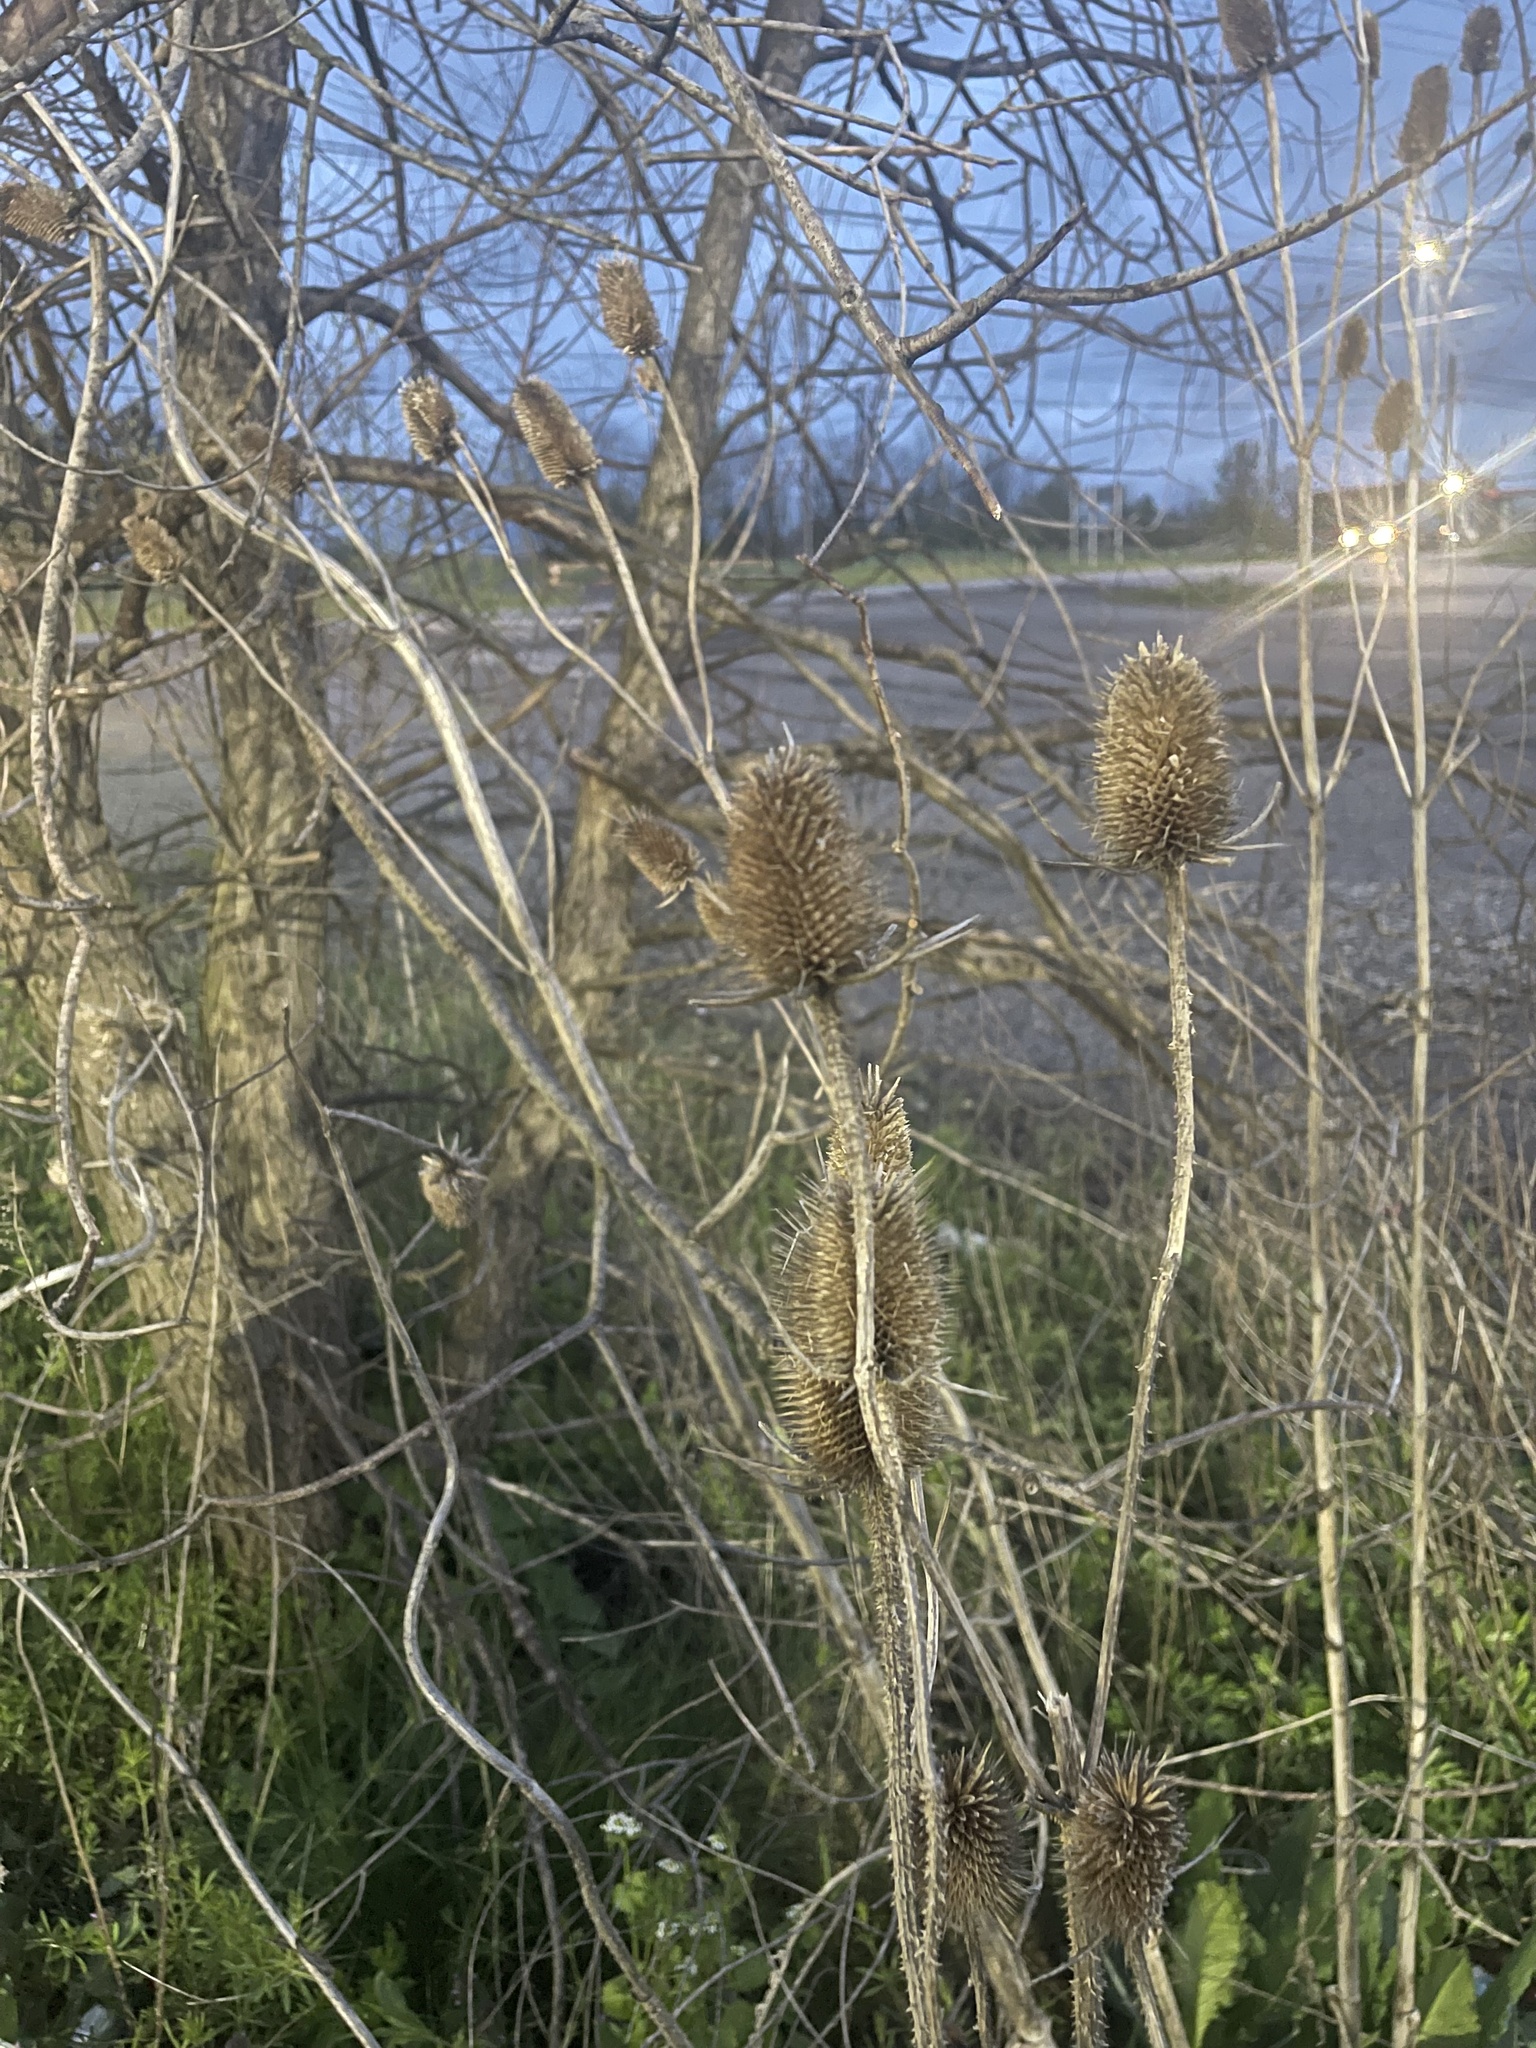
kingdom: Plantae
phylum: Tracheophyta
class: Magnoliopsida
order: Dipsacales
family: Caprifoliaceae
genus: Dipsacus
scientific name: Dipsacus laciniatus
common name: Cut-leaved teasel
